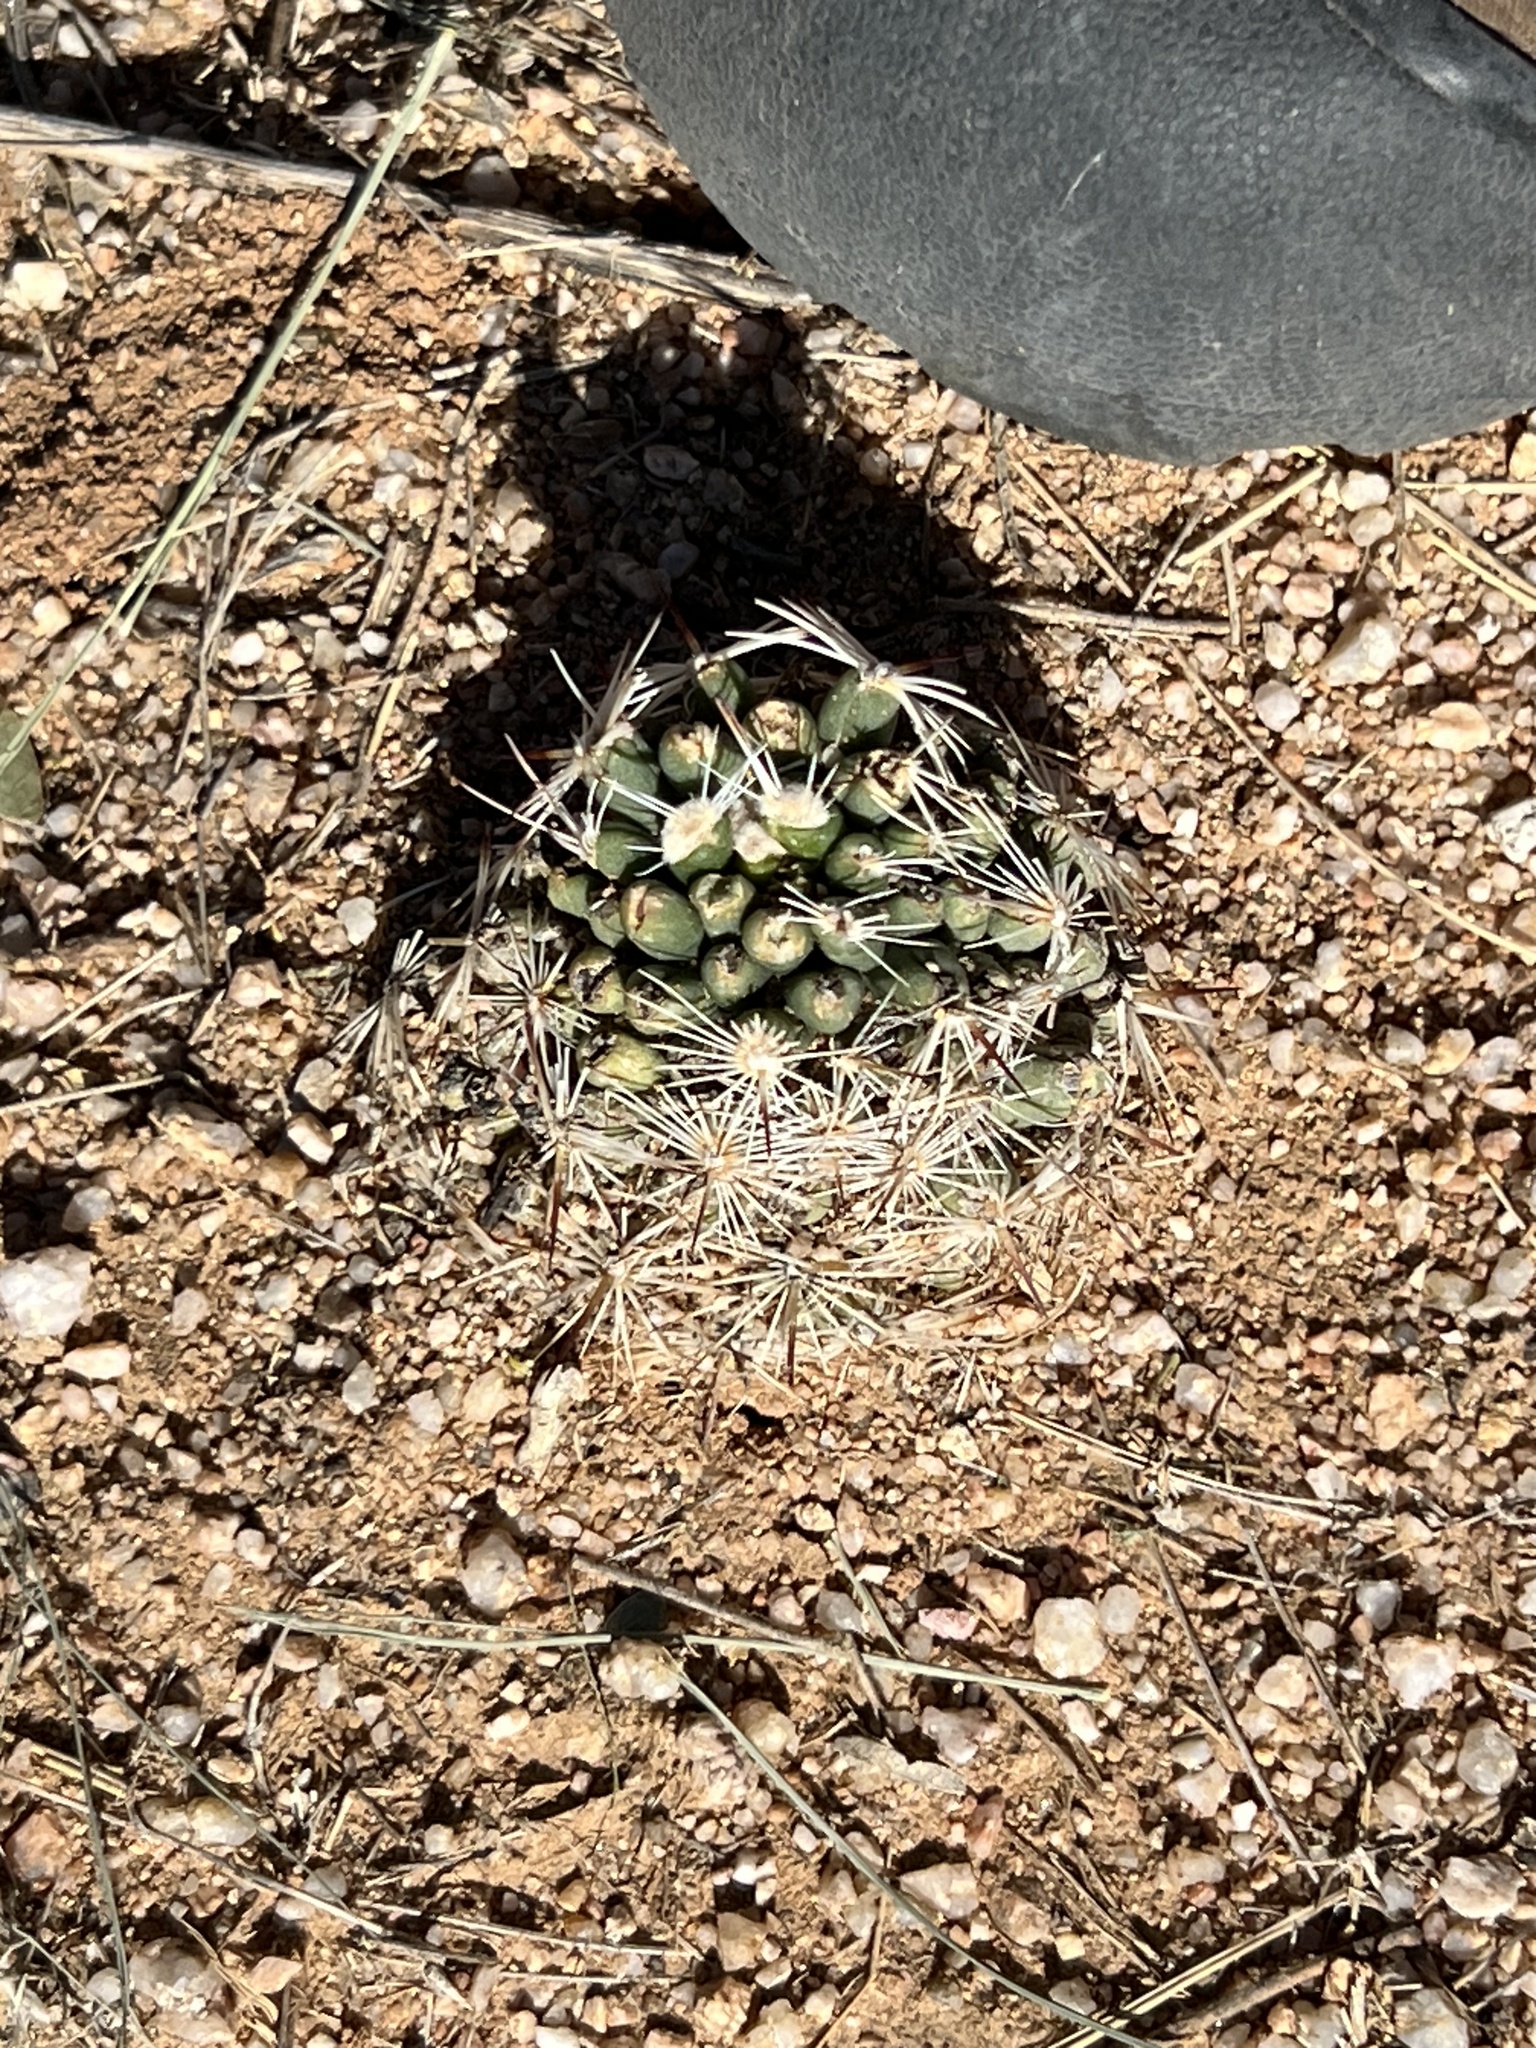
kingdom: Plantae
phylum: Tracheophyta
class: Magnoliopsida
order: Caryophyllales
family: Cactaceae
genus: Pelecyphora
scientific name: Pelecyphora vivipara
